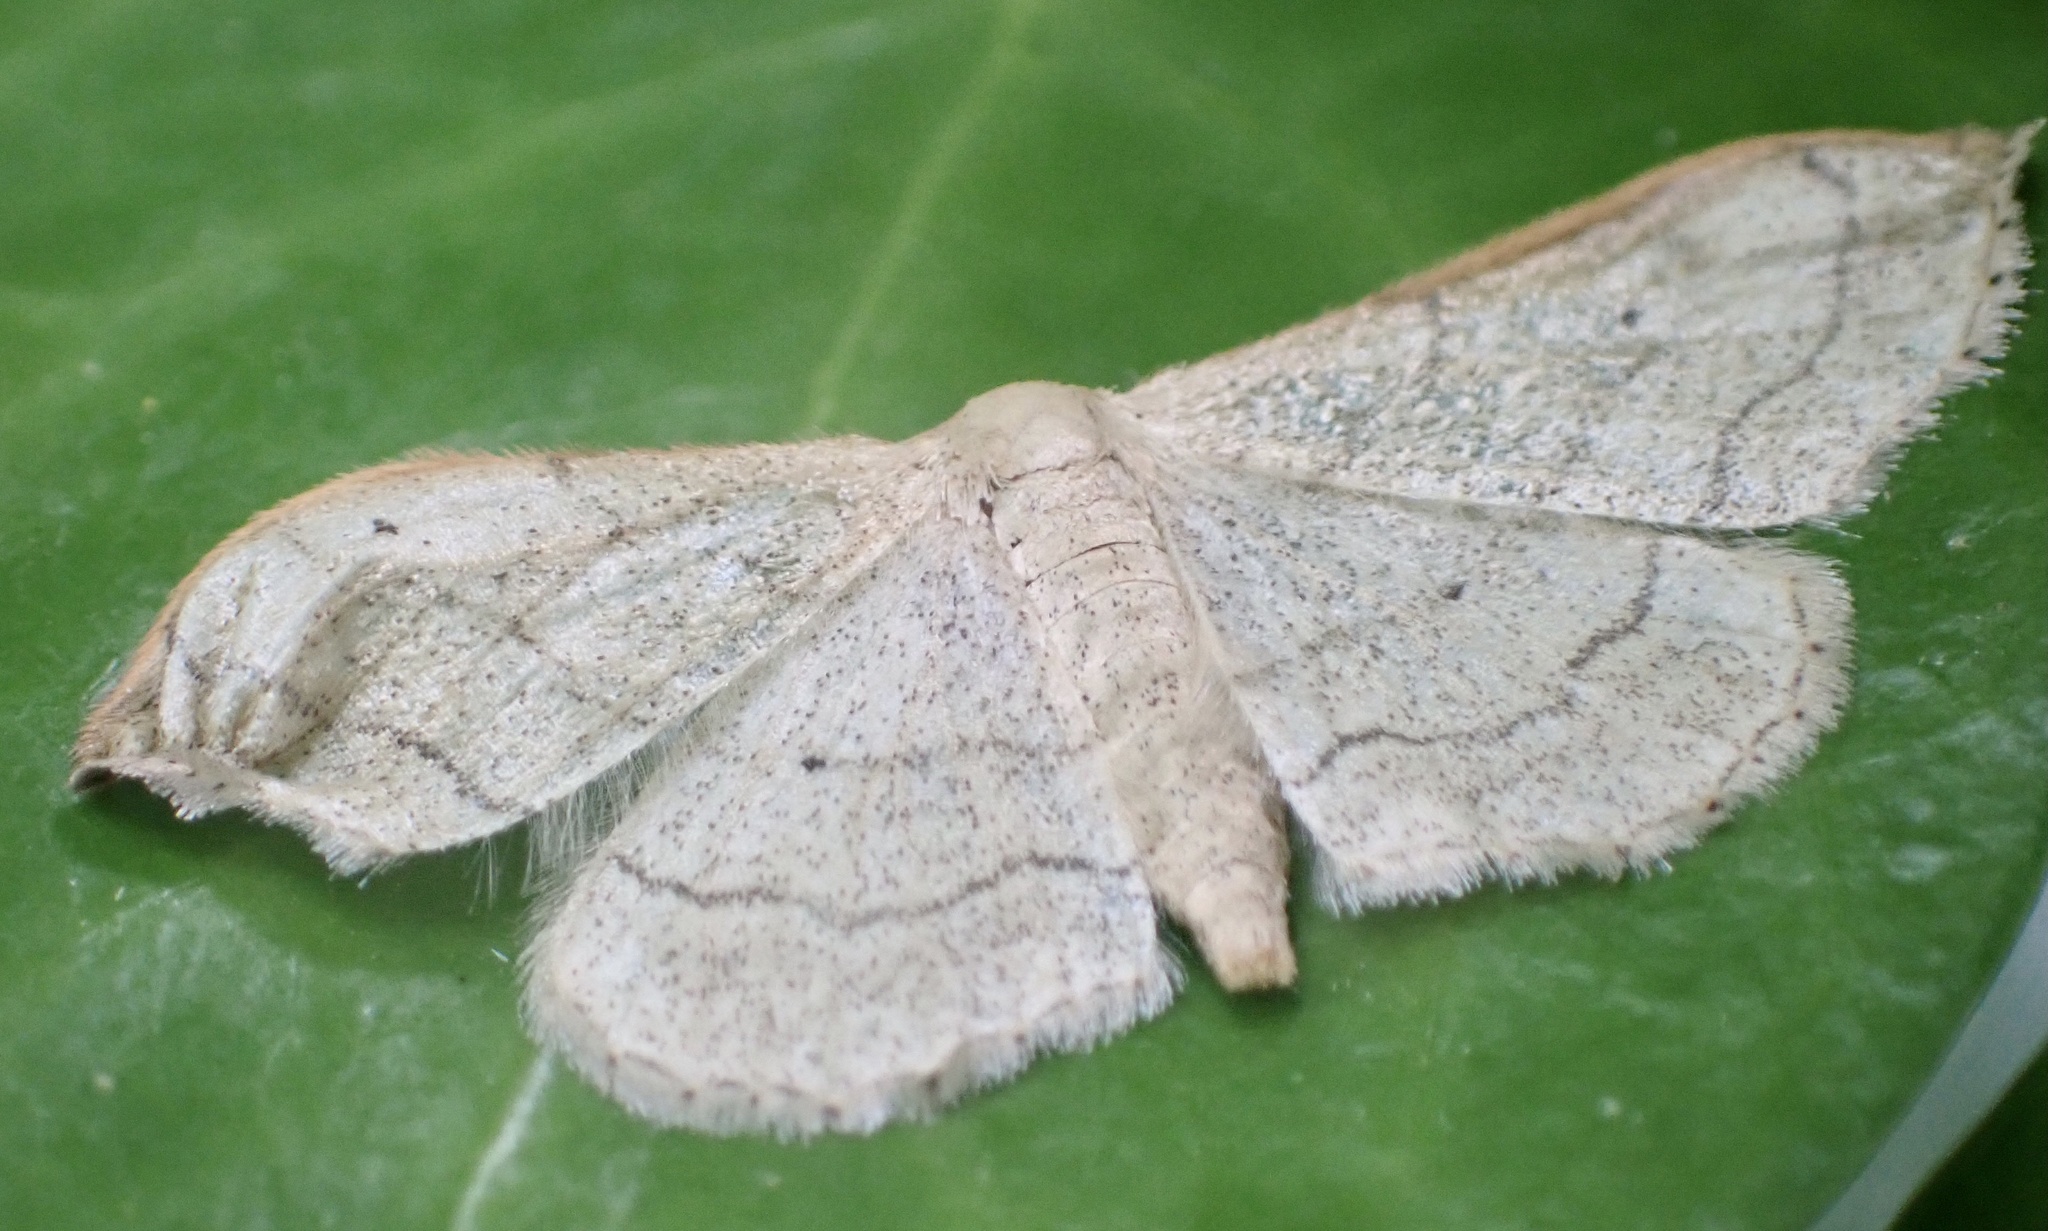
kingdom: Animalia
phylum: Arthropoda
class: Insecta
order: Lepidoptera
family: Geometridae
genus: Idaea
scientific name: Idaea aversata
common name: Riband wave
